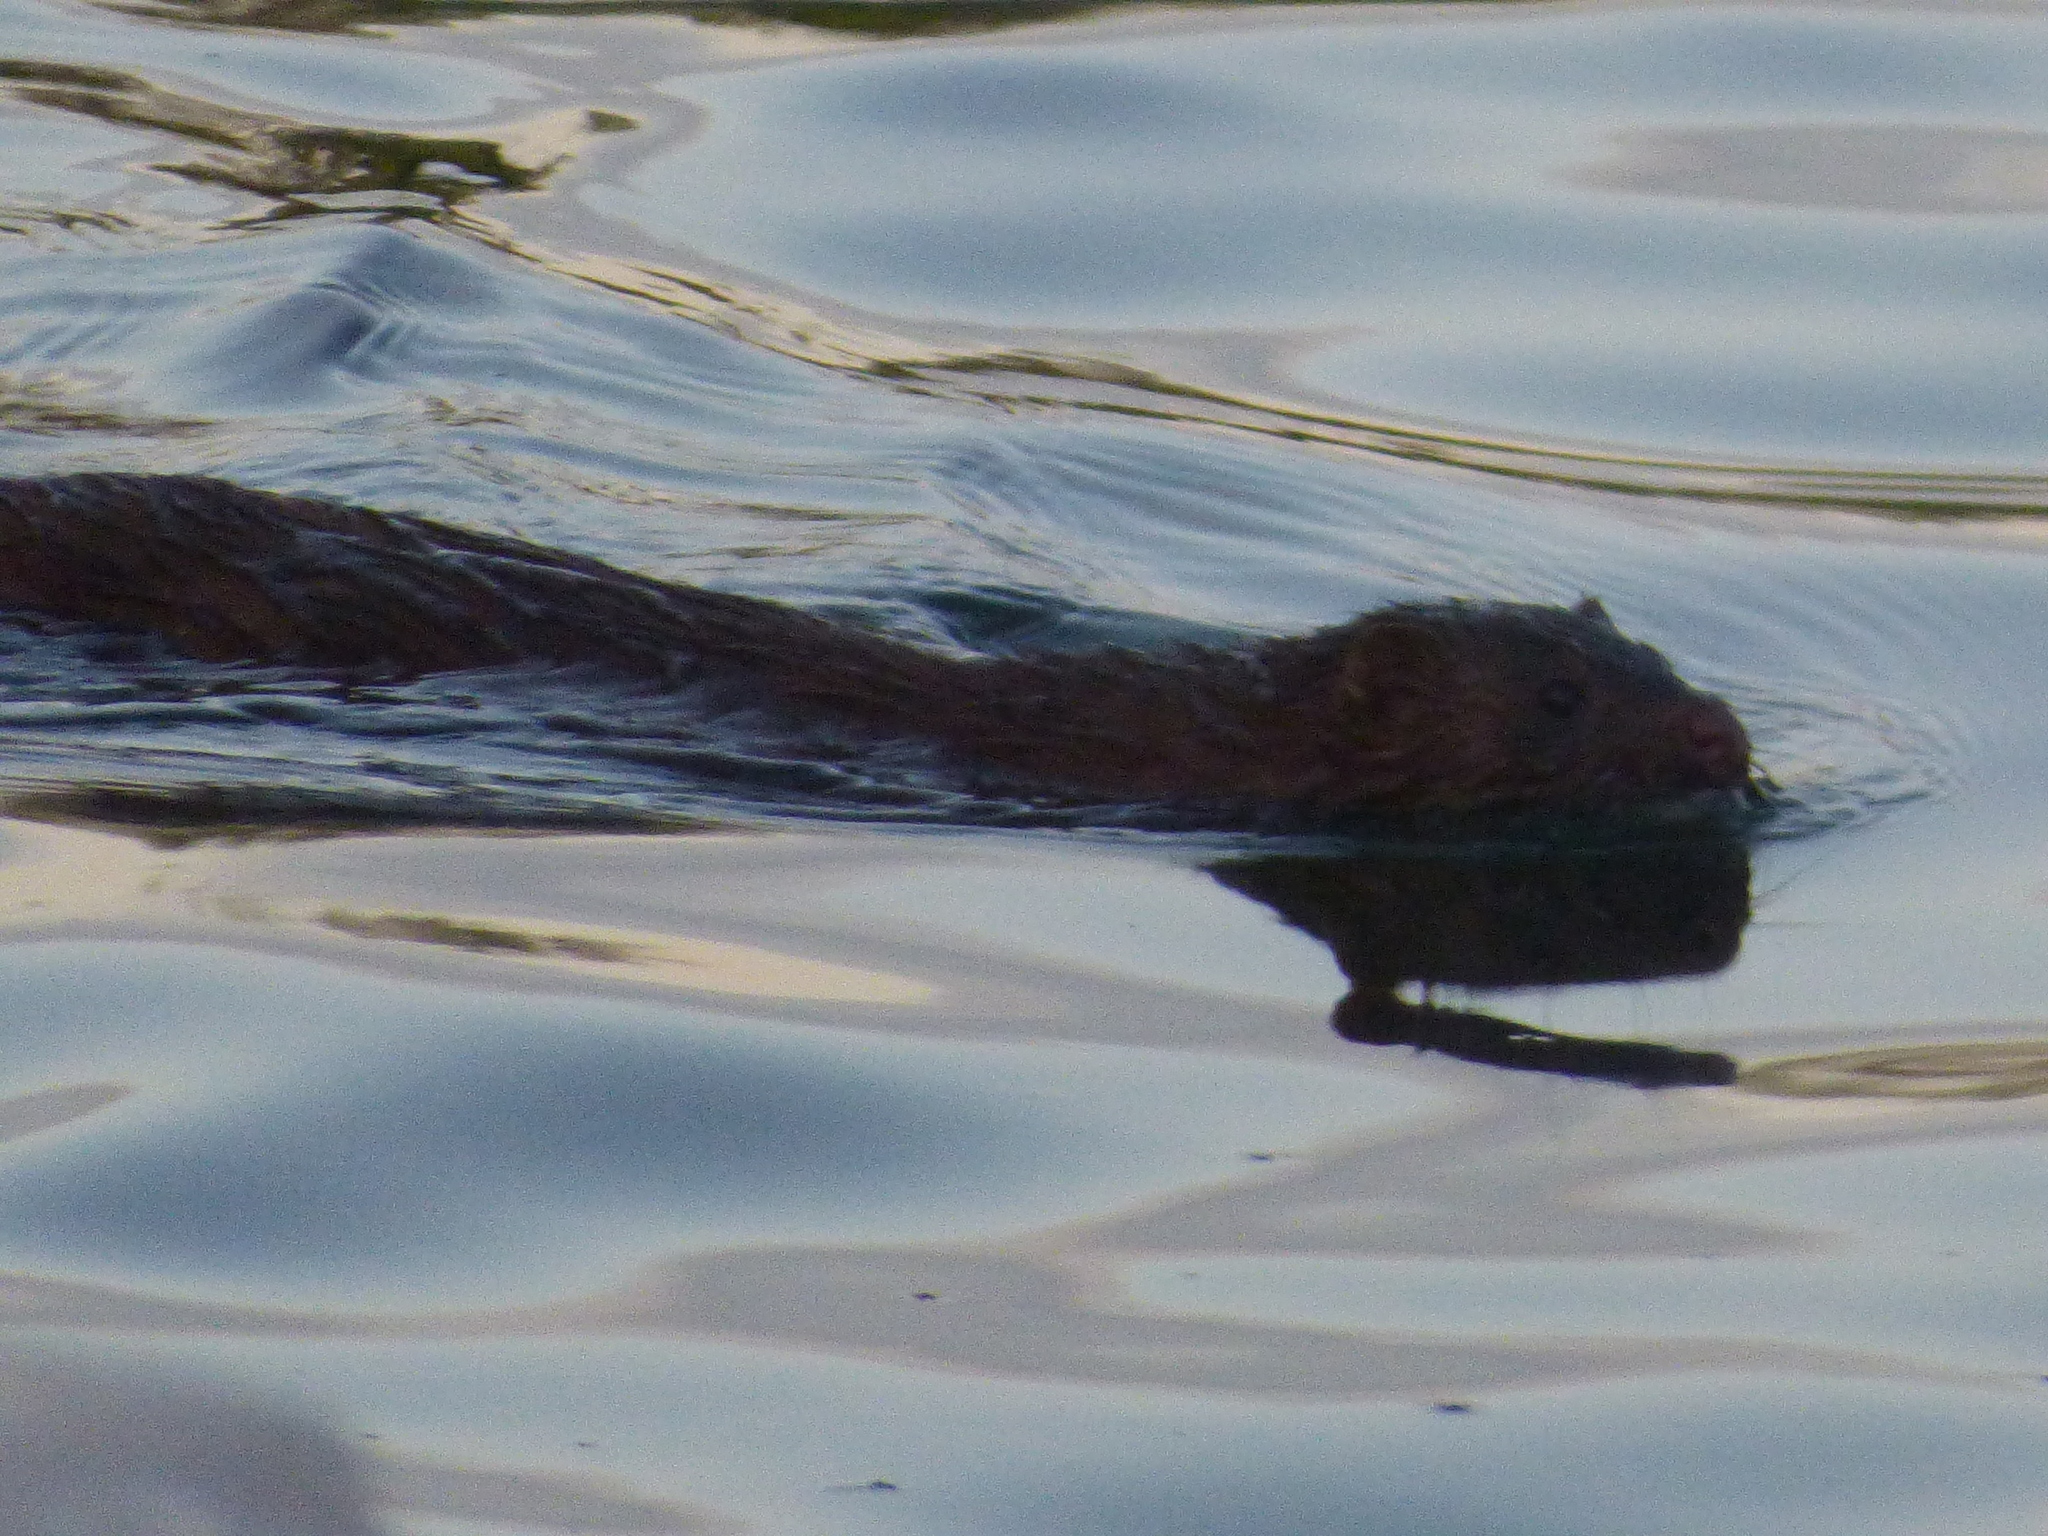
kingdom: Animalia
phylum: Chordata
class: Mammalia
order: Carnivora
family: Mustelidae
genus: Mustela
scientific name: Mustela
